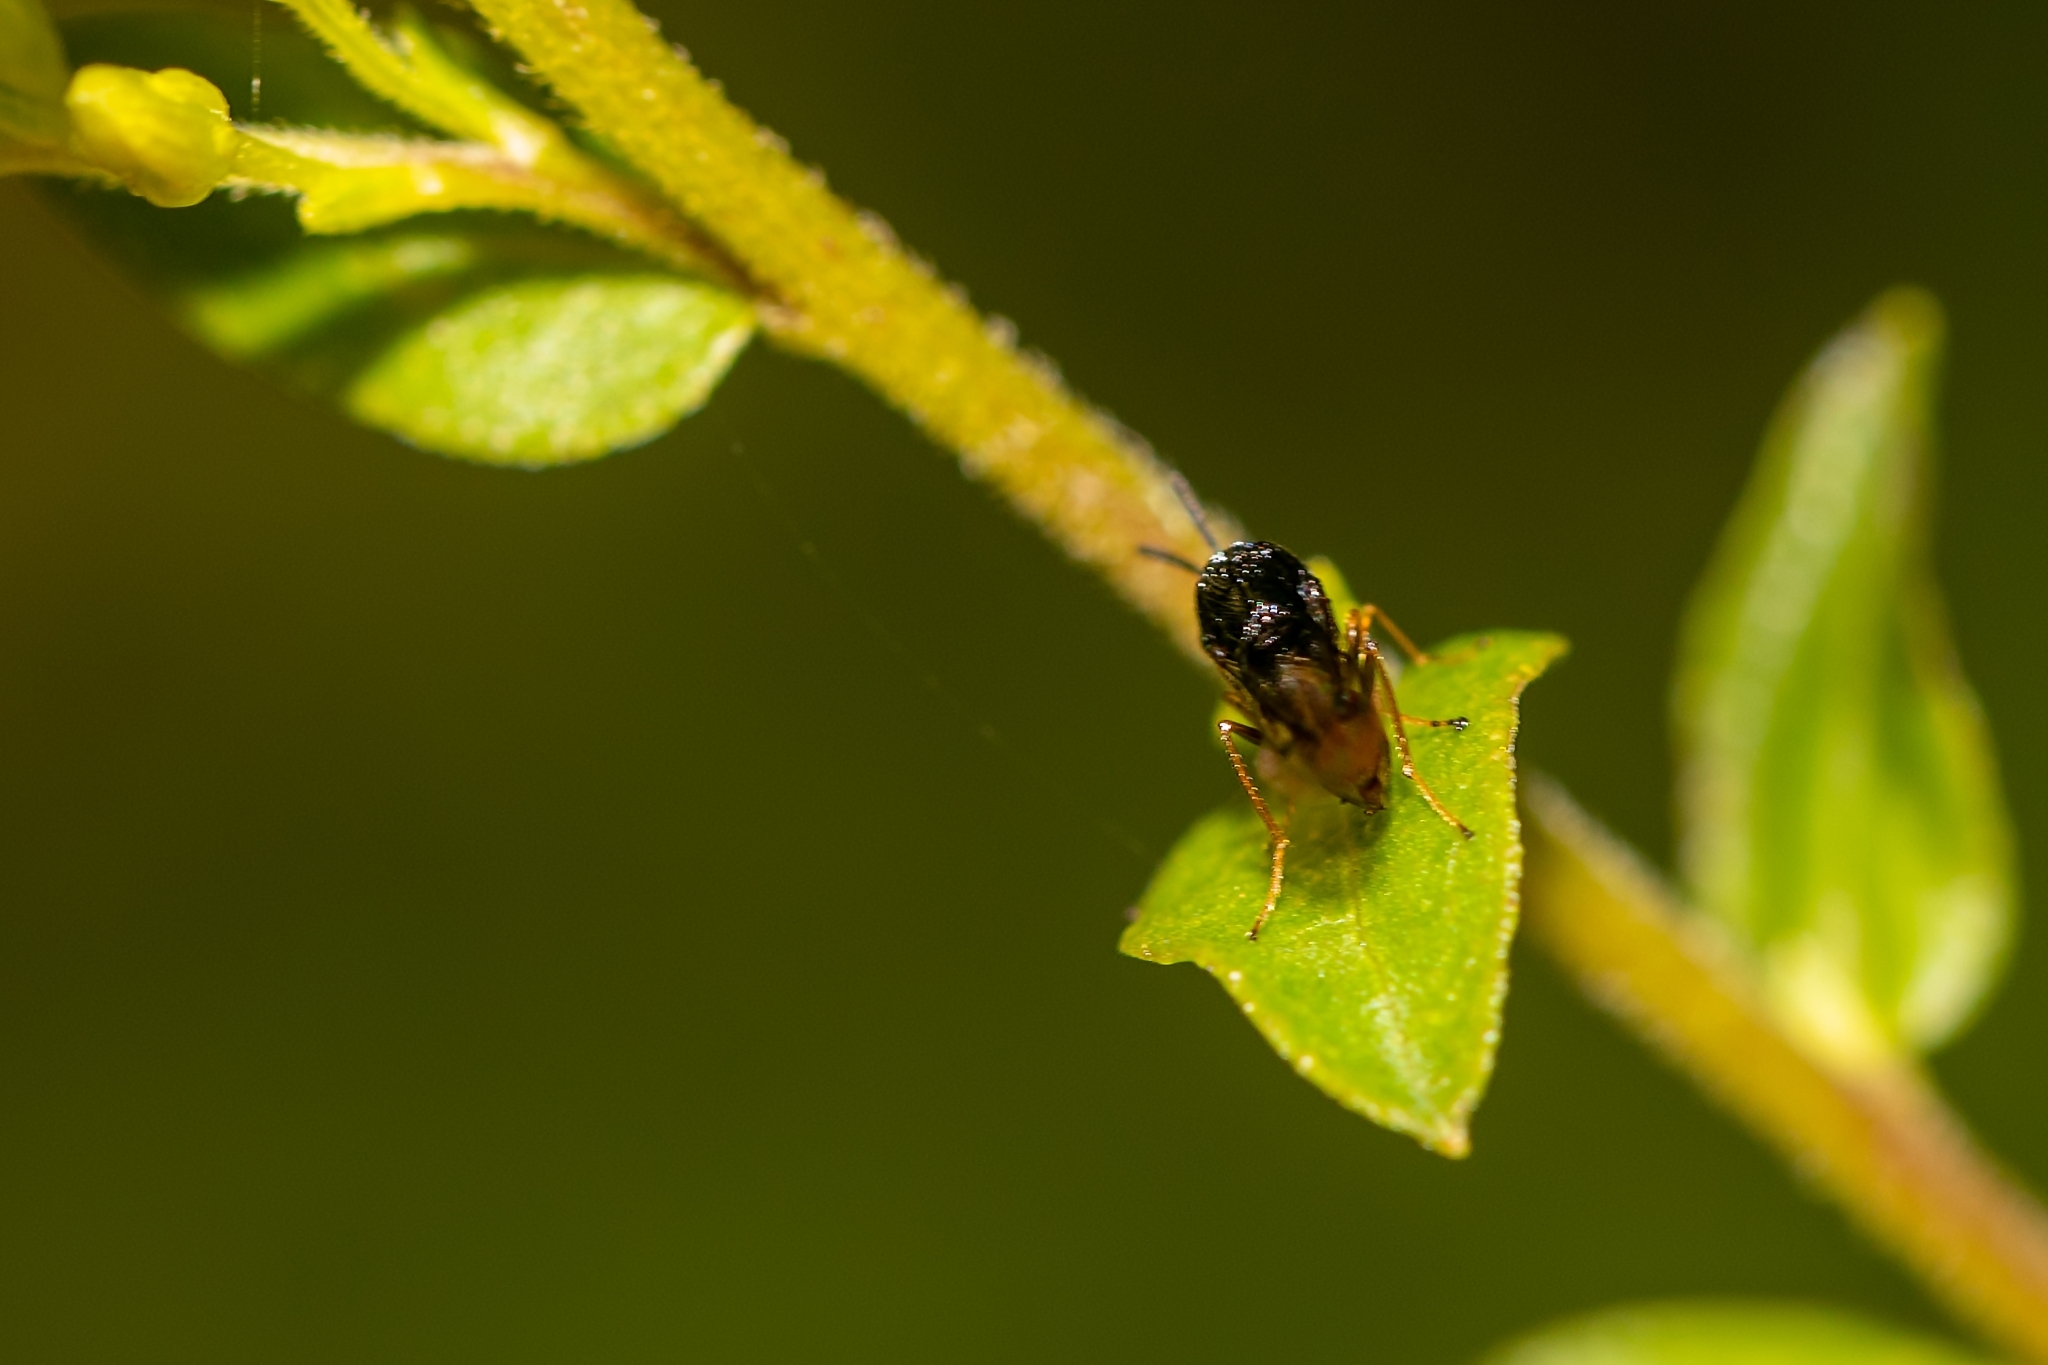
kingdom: Animalia
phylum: Arthropoda
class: Insecta
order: Hymenoptera
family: Eucharitidae
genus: Kapala
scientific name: Kapala floridana
